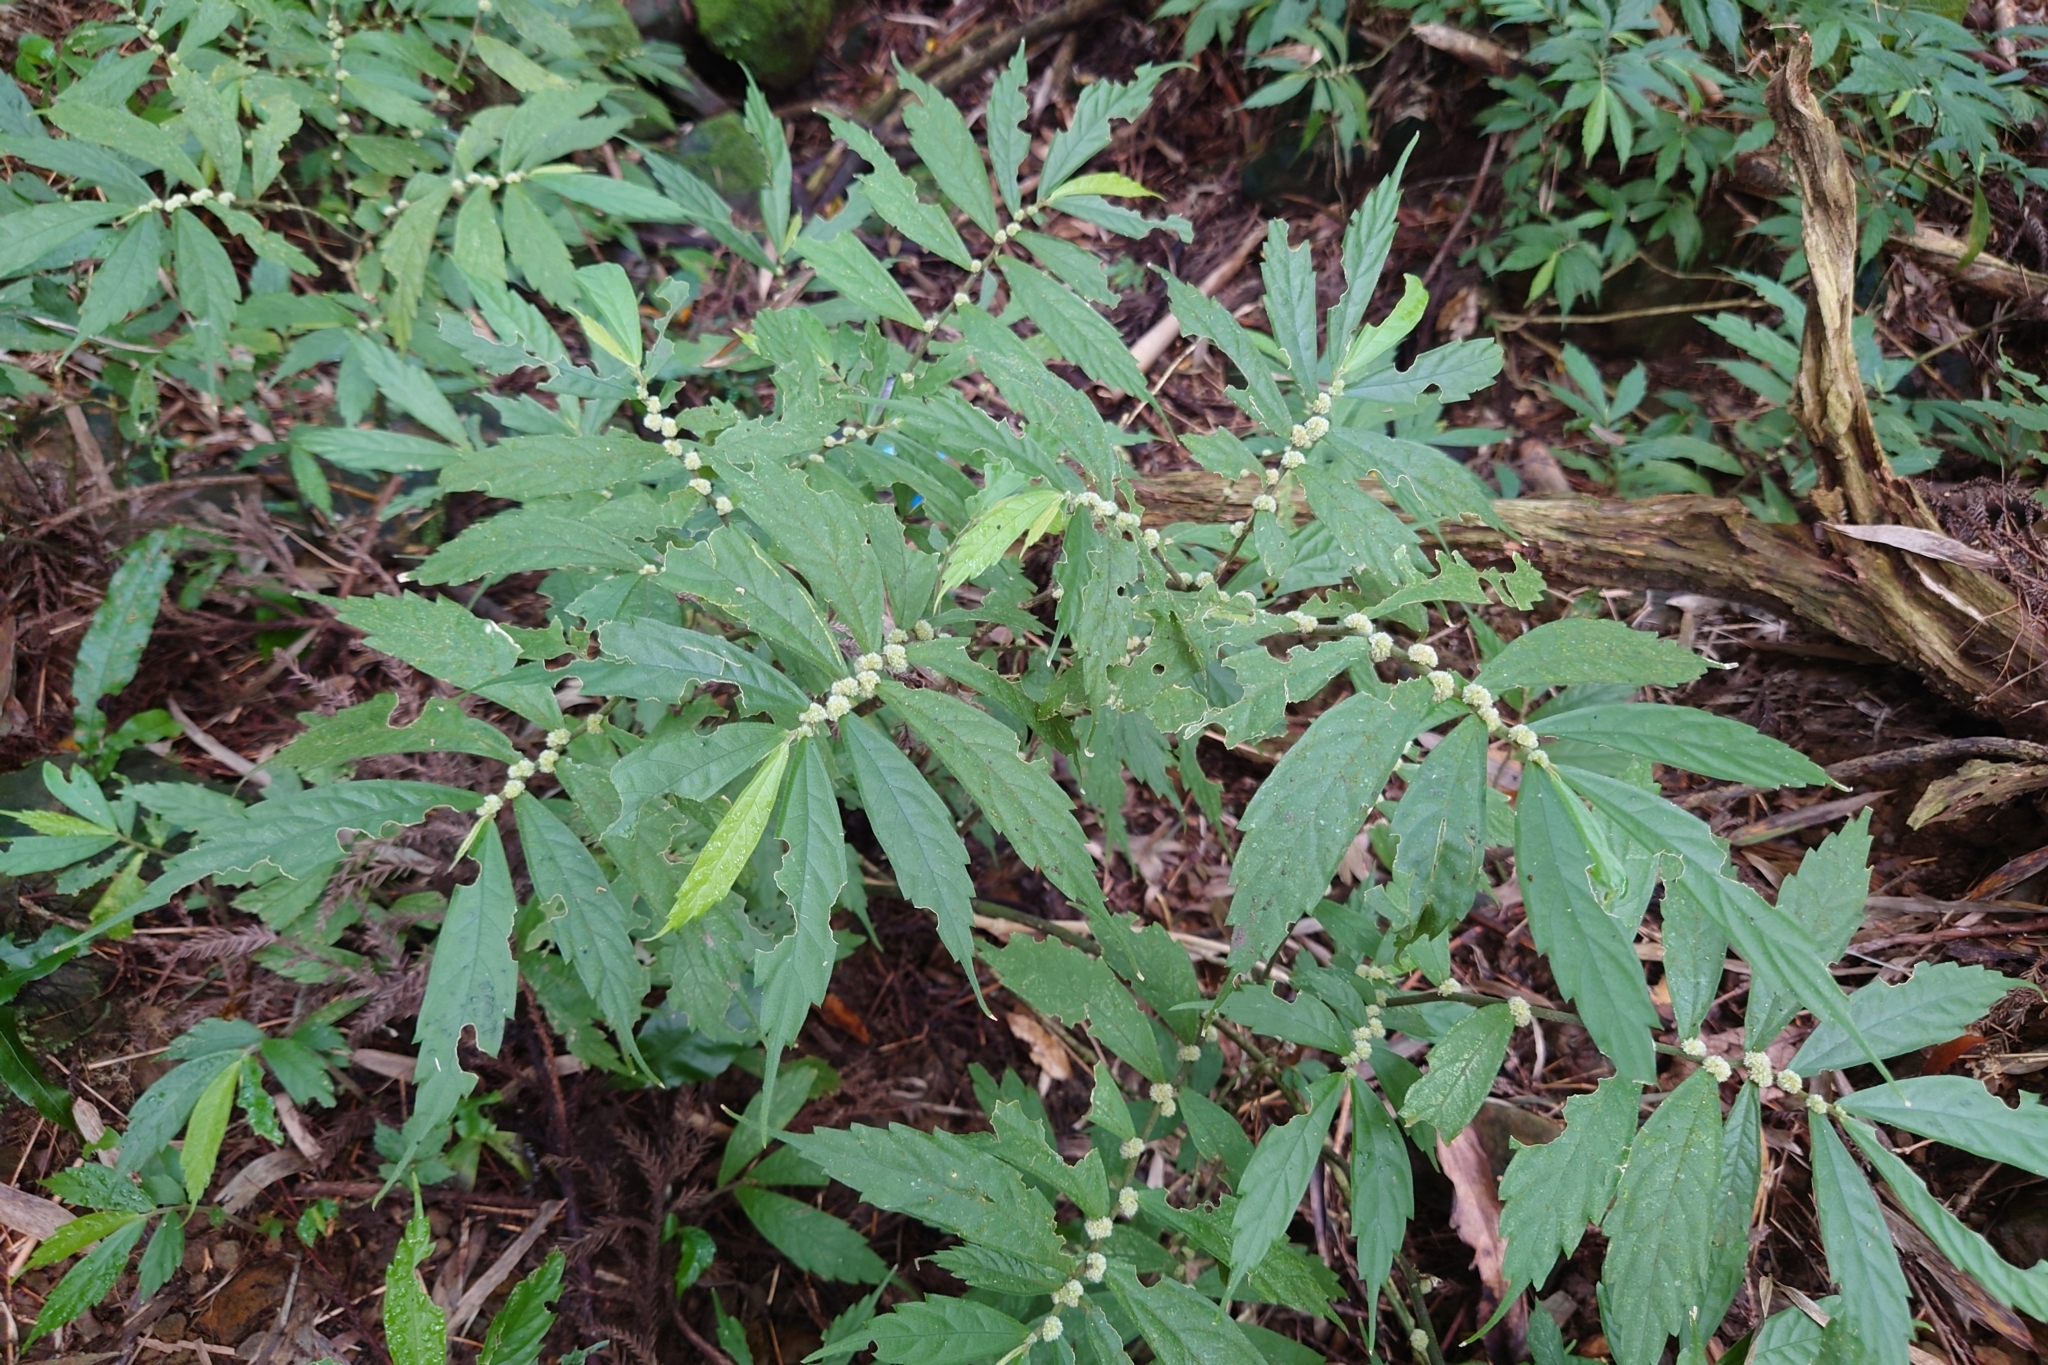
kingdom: Plantae
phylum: Tracheophyta
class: Magnoliopsida
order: Rosales
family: Urticaceae
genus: Elatostema
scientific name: Elatostema lineolatum
